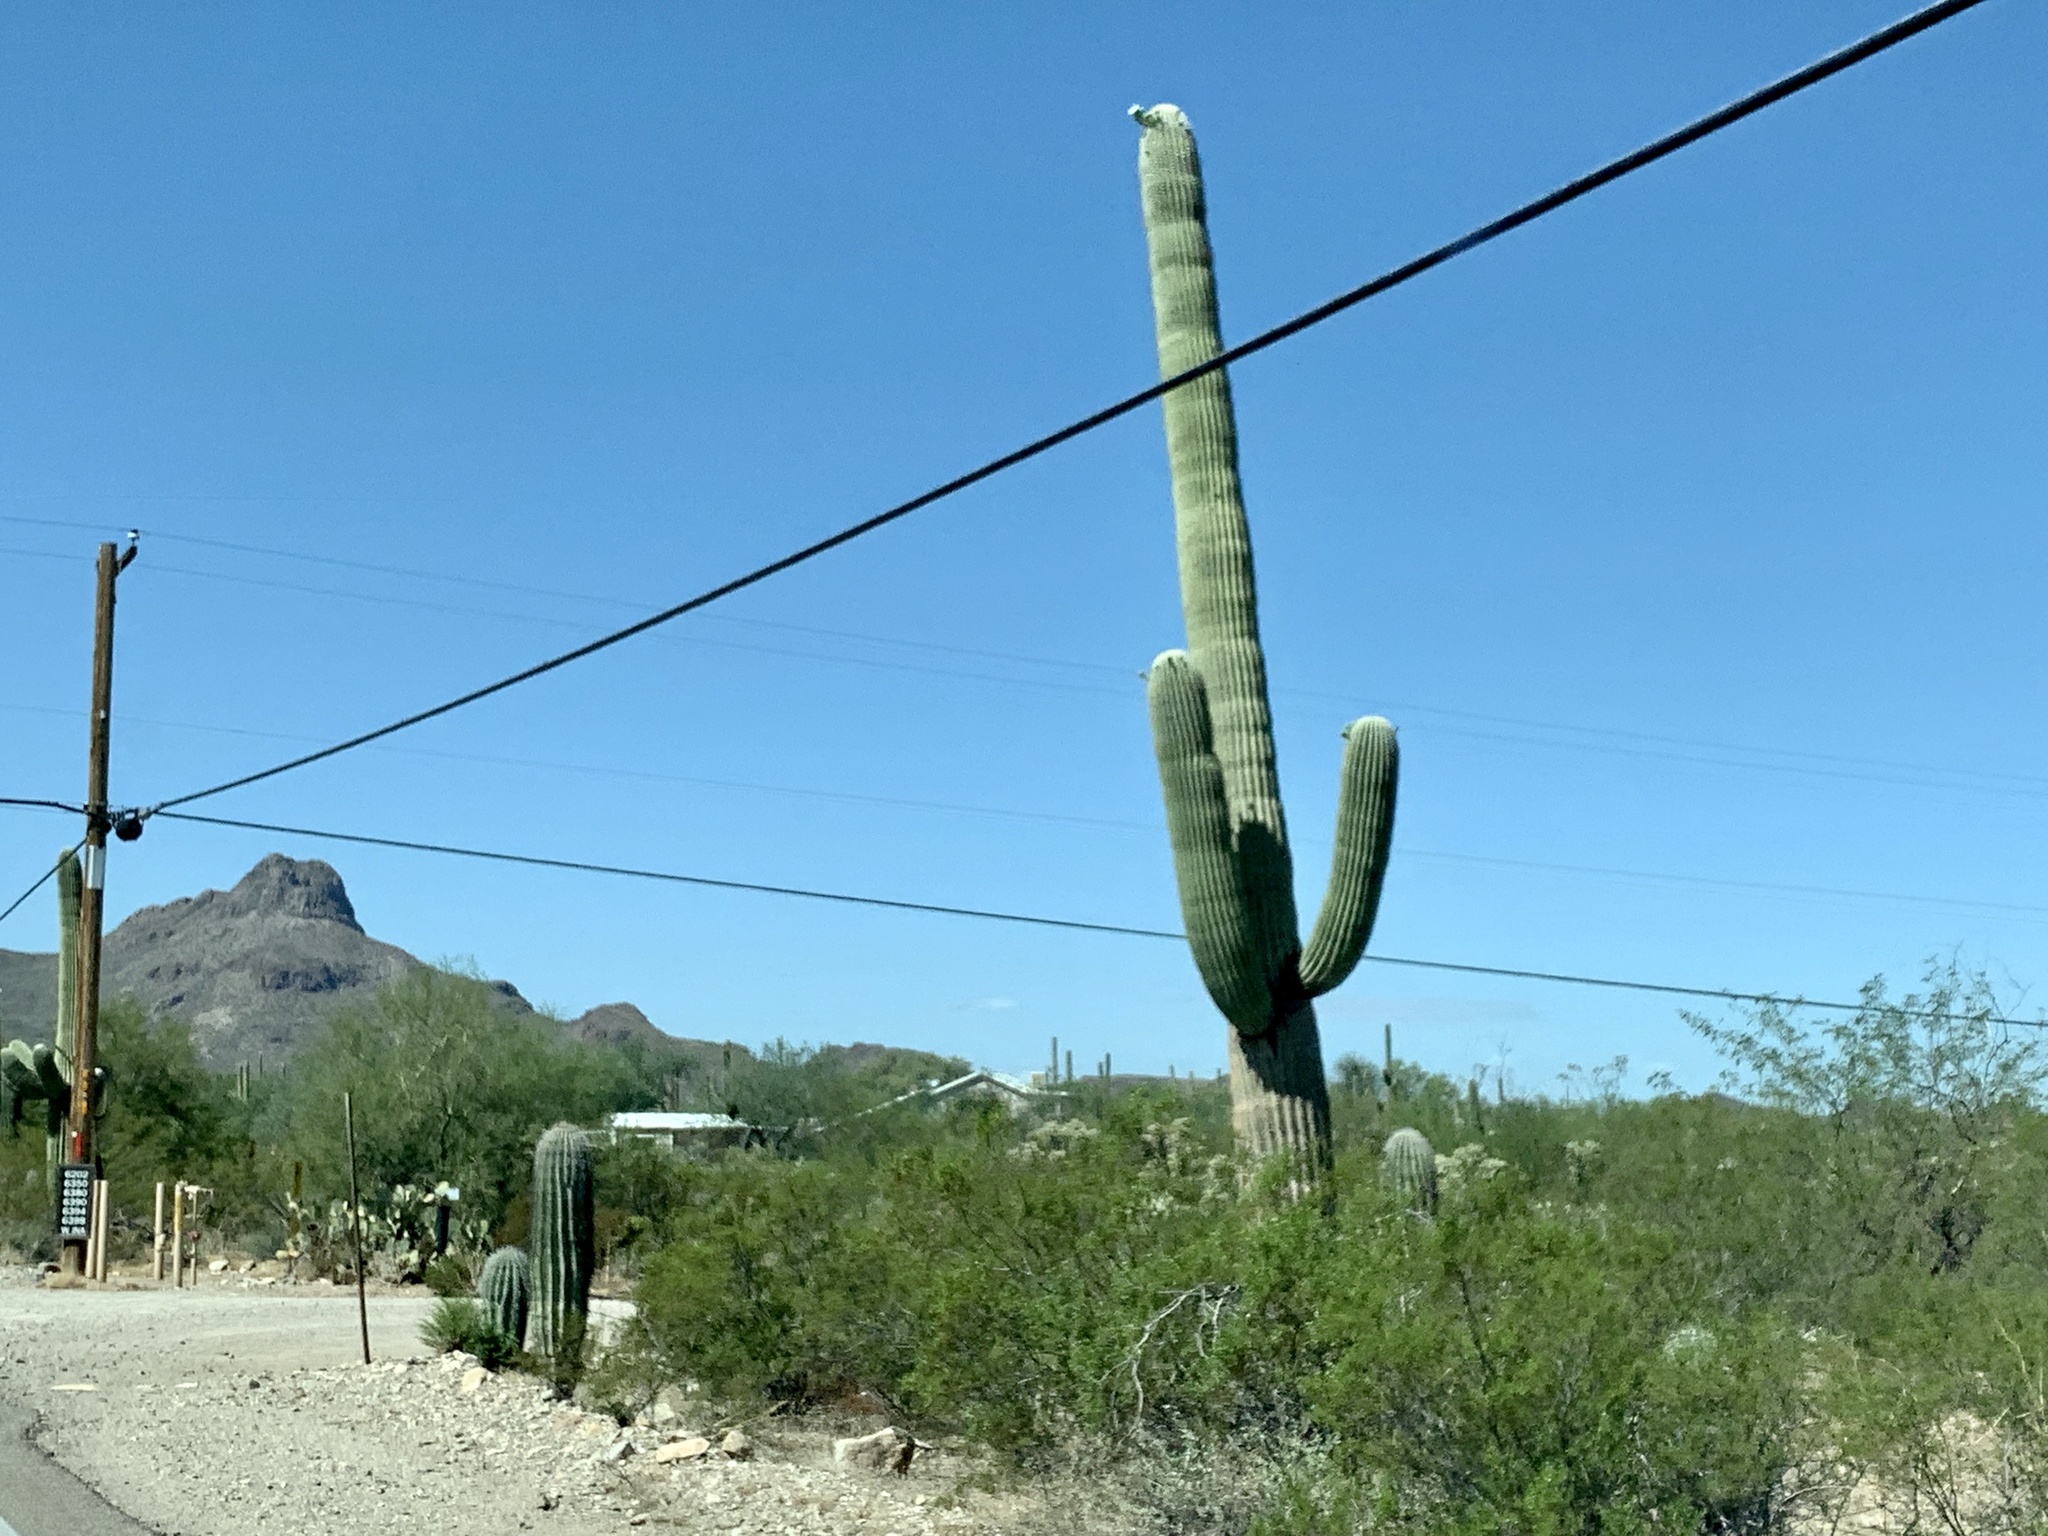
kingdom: Plantae
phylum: Tracheophyta
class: Magnoliopsida
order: Caryophyllales
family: Cactaceae
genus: Carnegiea
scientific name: Carnegiea gigantea
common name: Saguaro
